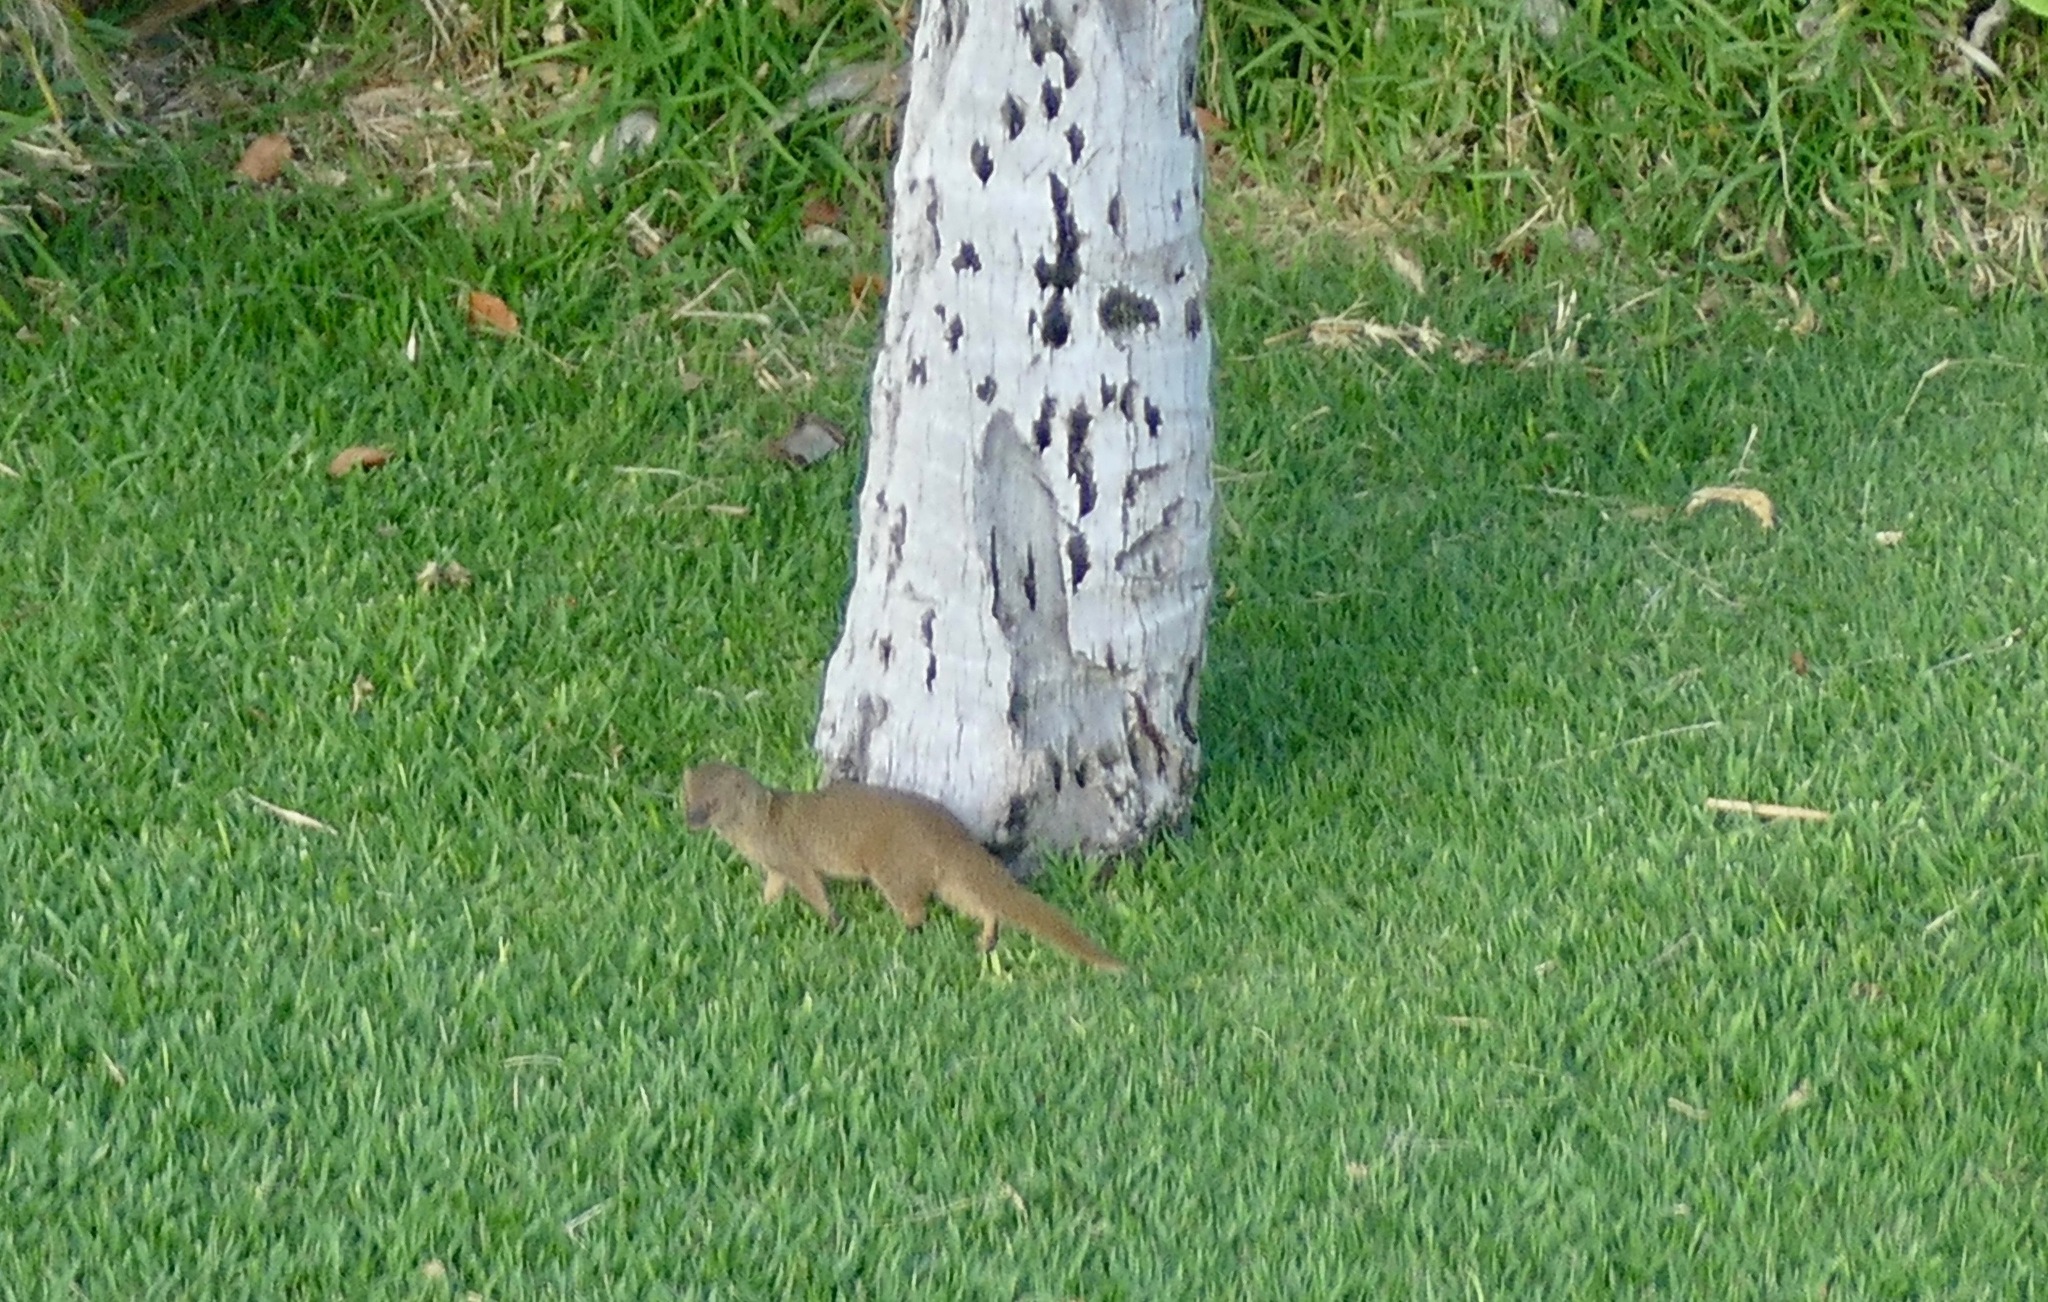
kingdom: Animalia
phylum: Chordata
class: Mammalia
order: Carnivora
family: Herpestidae
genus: Herpestes
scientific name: Herpestes javanicus
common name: Small asian mongoose
